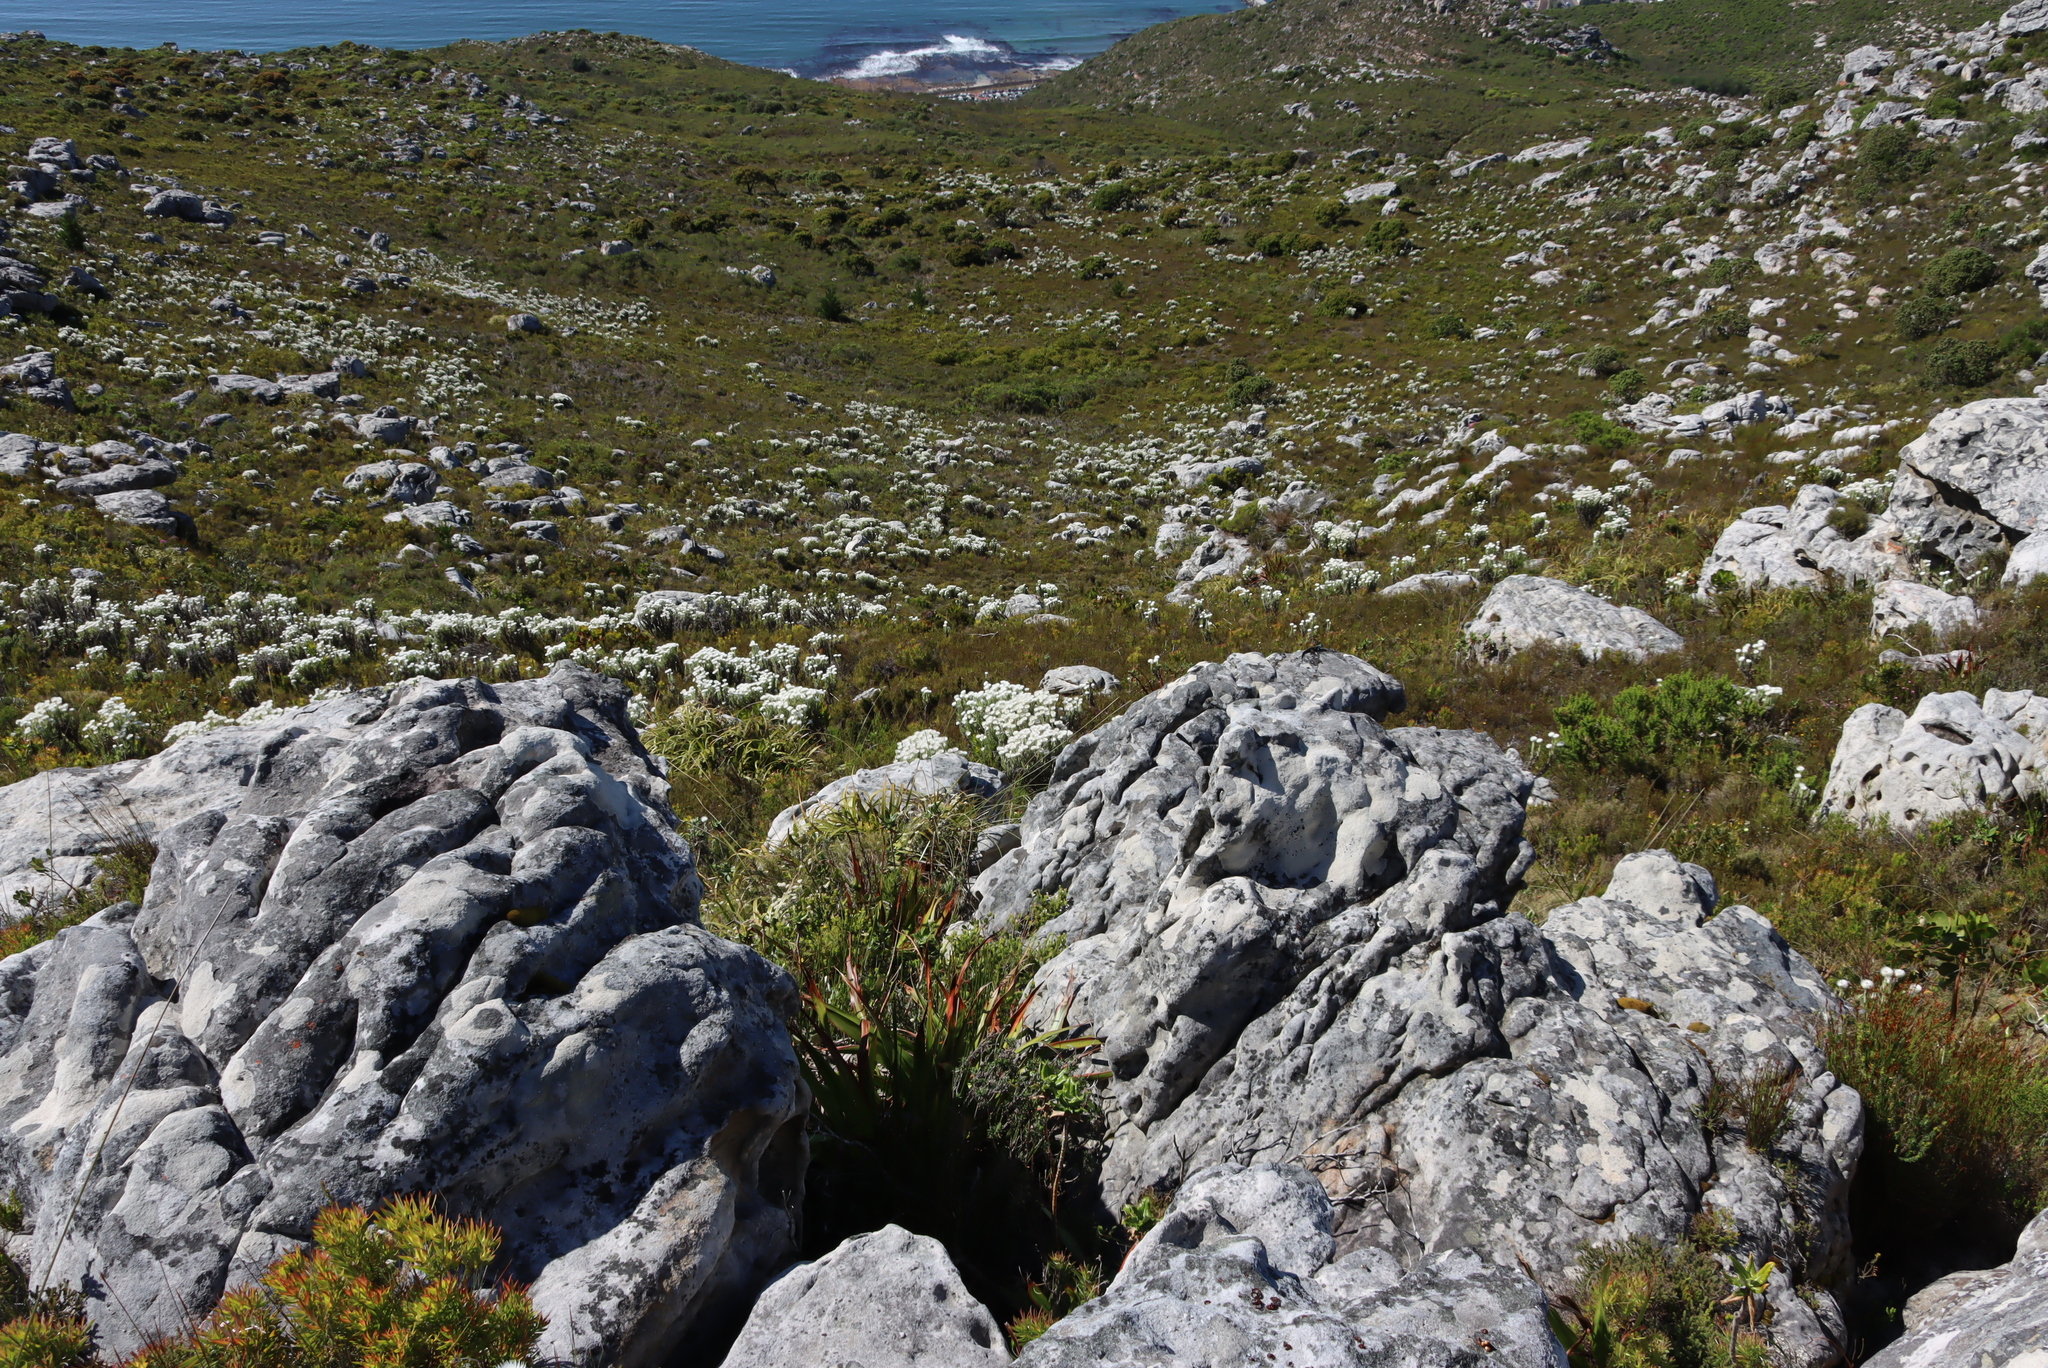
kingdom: Plantae
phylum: Tracheophyta
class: Magnoliopsida
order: Asterales
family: Asteraceae
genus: Syncarpha
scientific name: Syncarpha vestita
